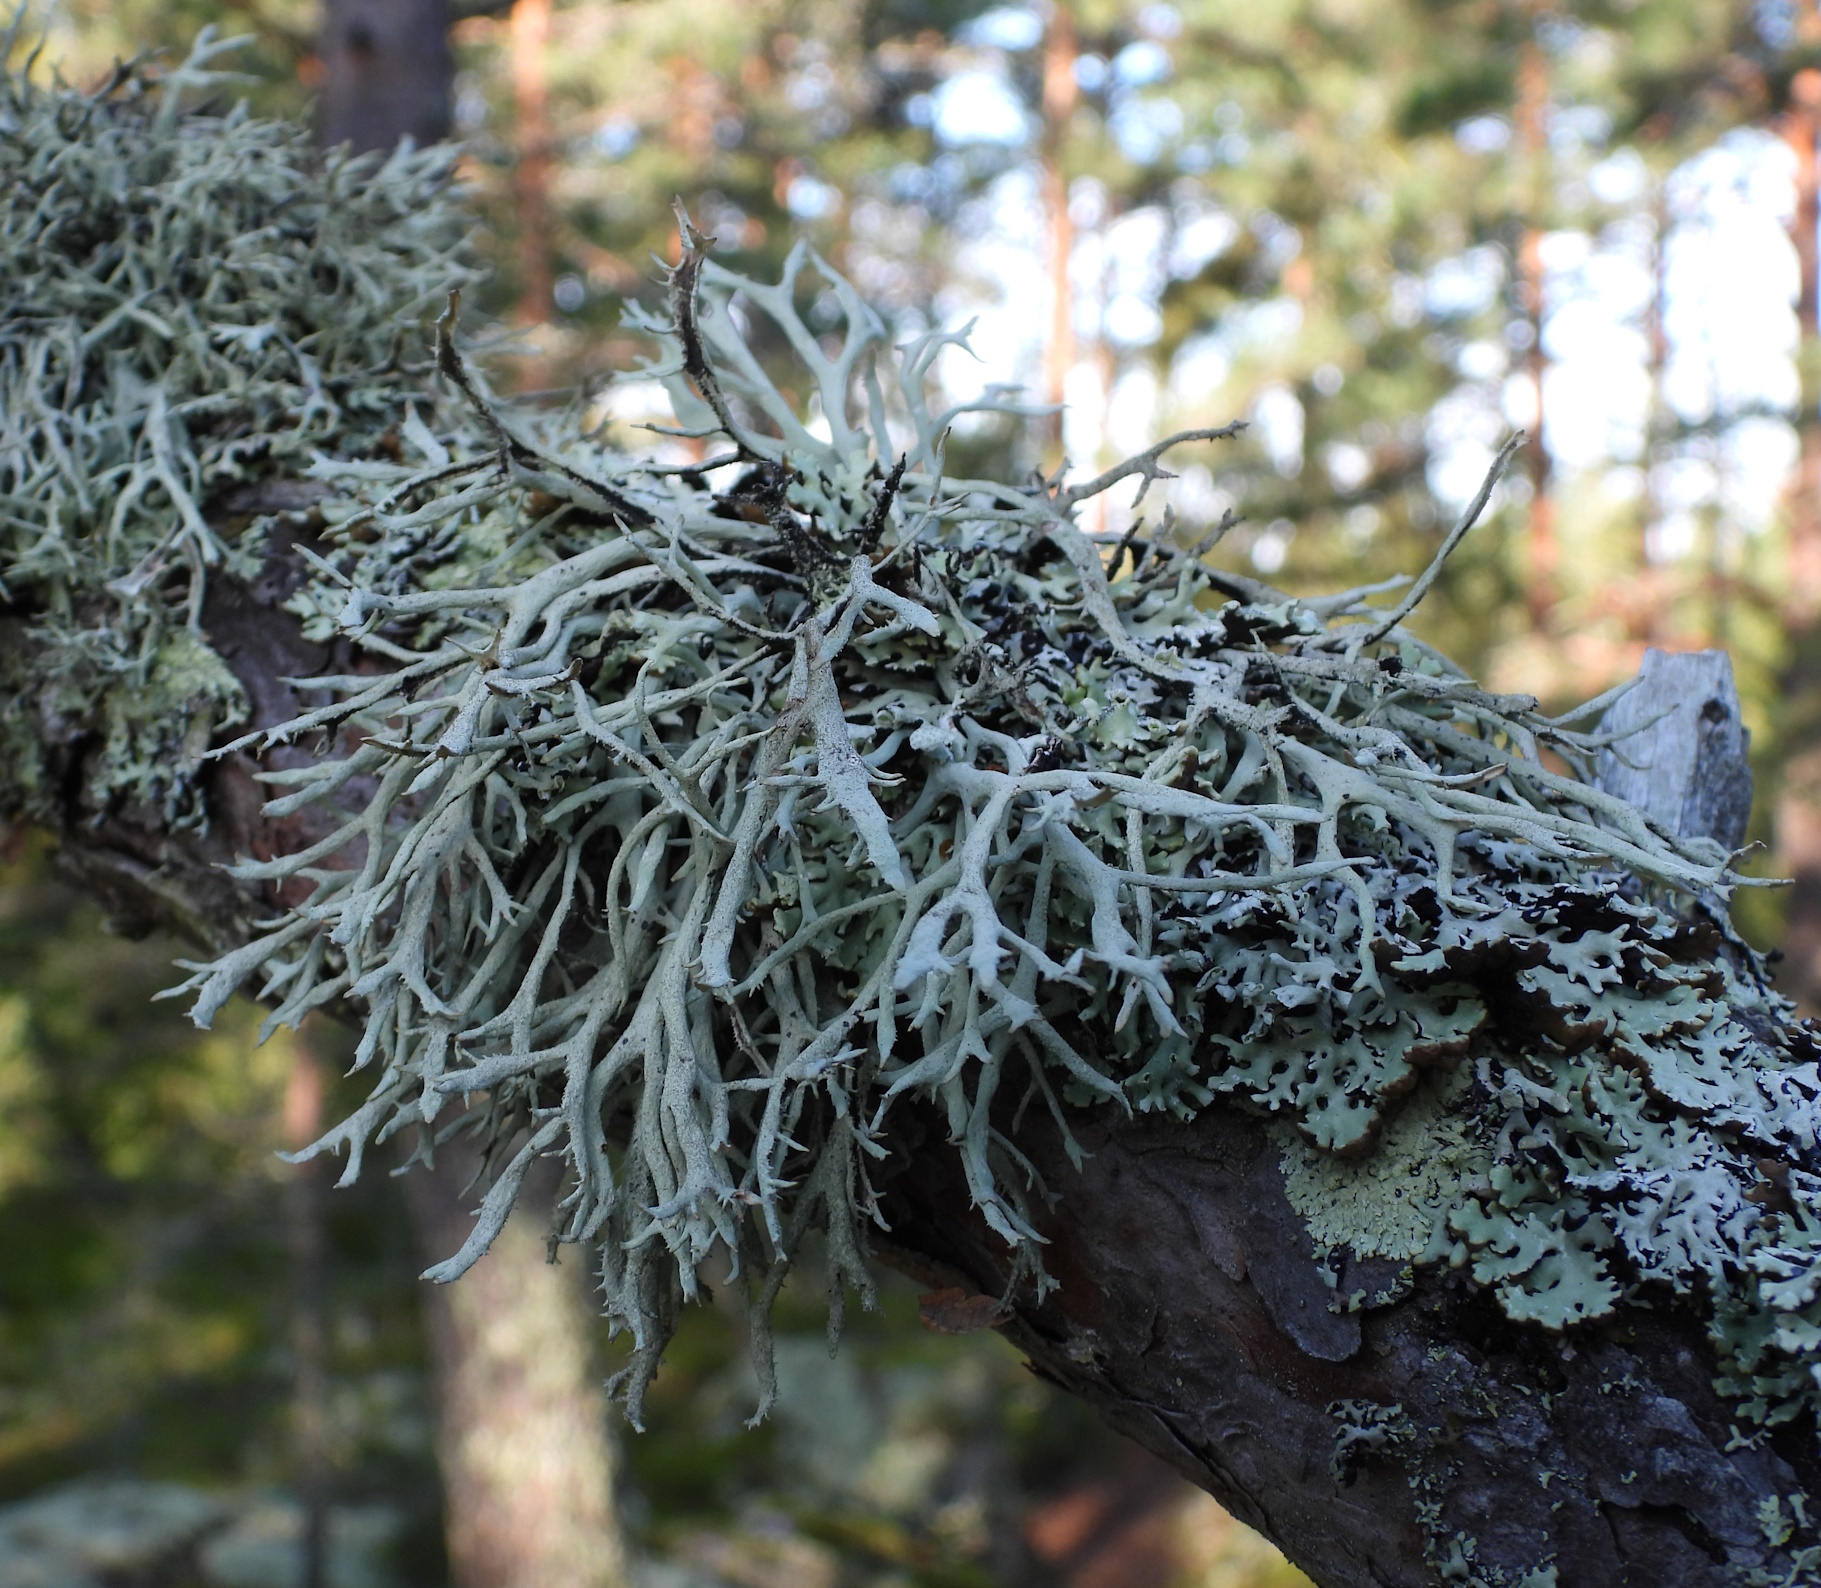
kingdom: Fungi
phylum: Ascomycota
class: Lecanoromycetes
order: Lecanorales
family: Parmeliaceae
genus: Pseudevernia
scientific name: Pseudevernia furfuracea
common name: Tree moss
